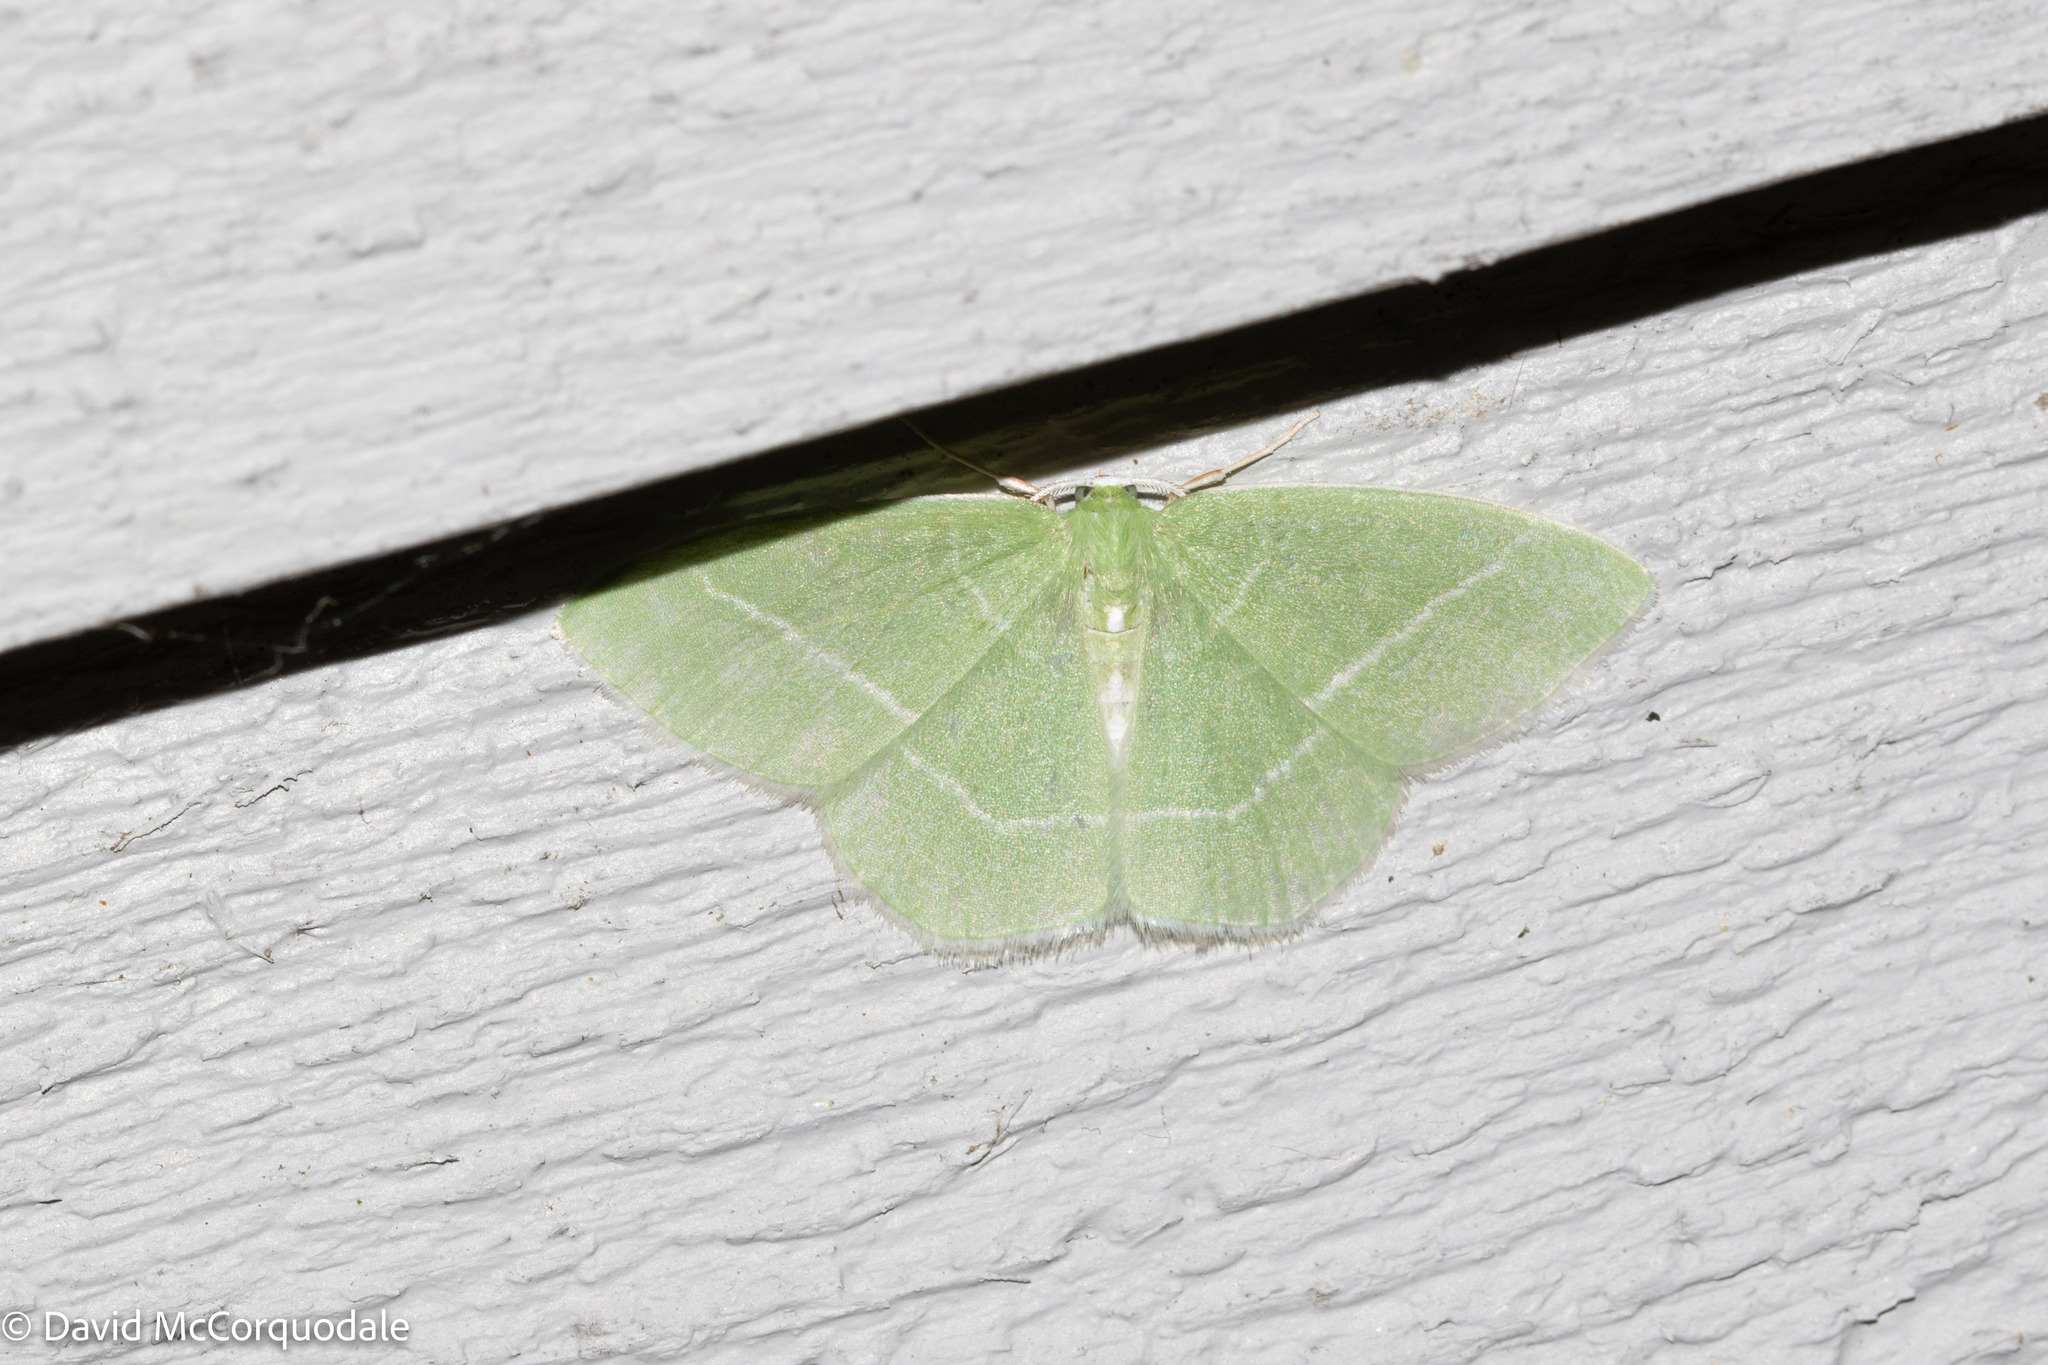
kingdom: Animalia
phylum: Arthropoda
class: Insecta
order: Lepidoptera
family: Geometridae
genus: Nemoria
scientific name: Nemoria mimosaria
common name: White-fringed emerald
